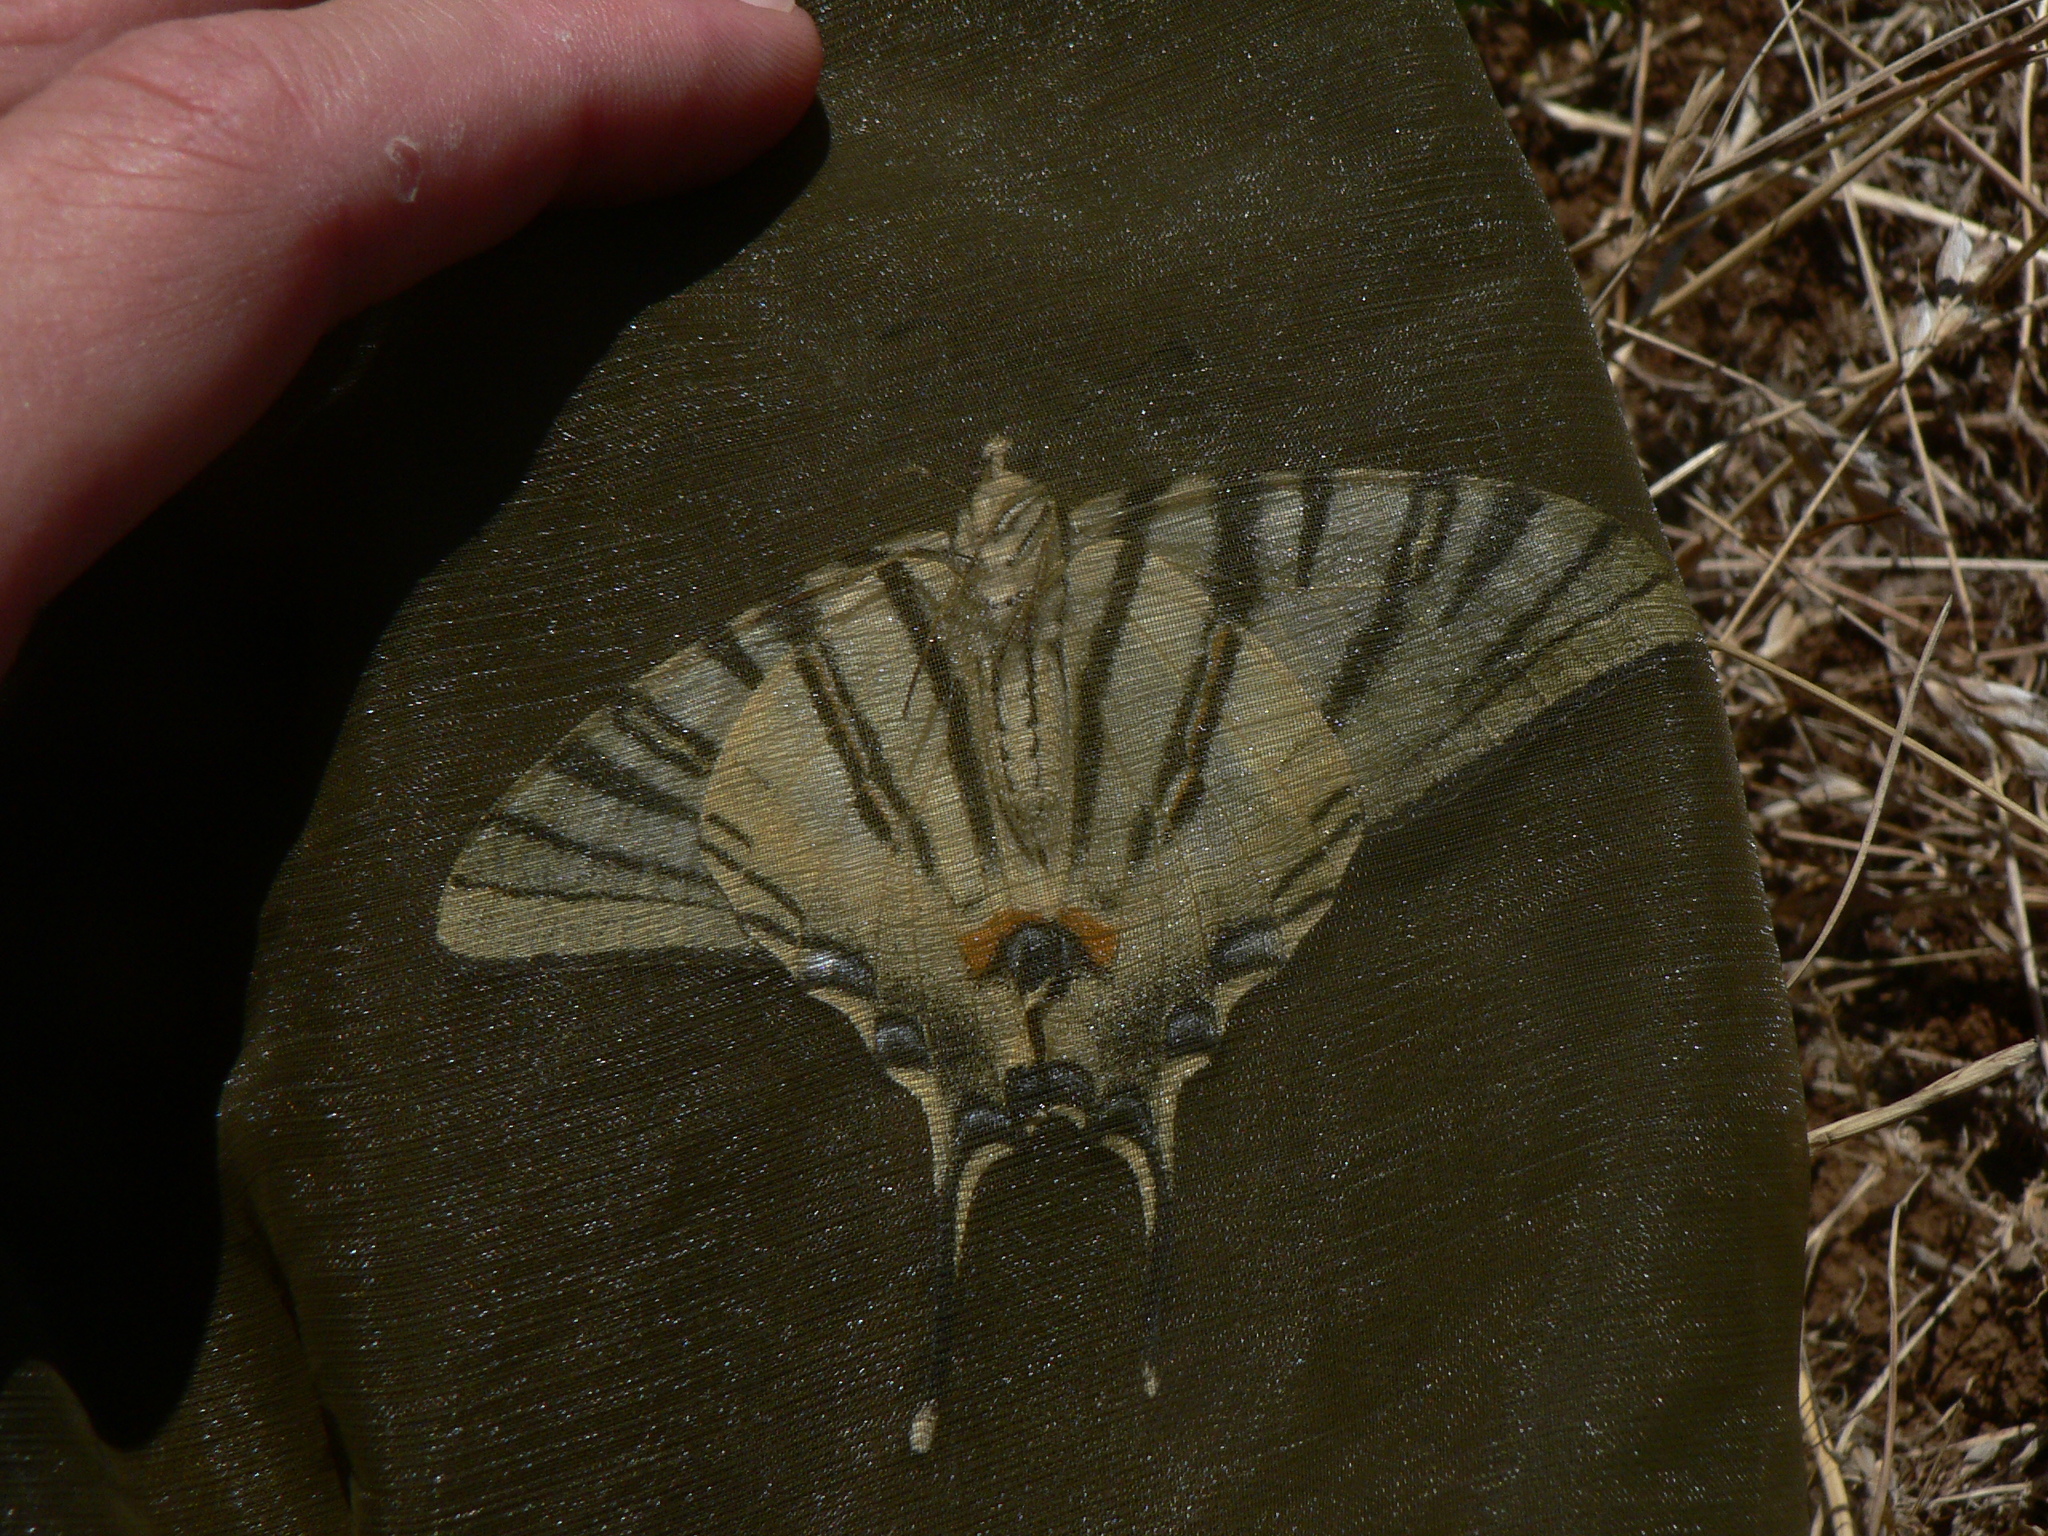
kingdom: Animalia
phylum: Arthropoda
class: Insecta
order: Lepidoptera
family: Papilionidae
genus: Iphiclides
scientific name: Iphiclides podalirius
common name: Scarce swallowtail
